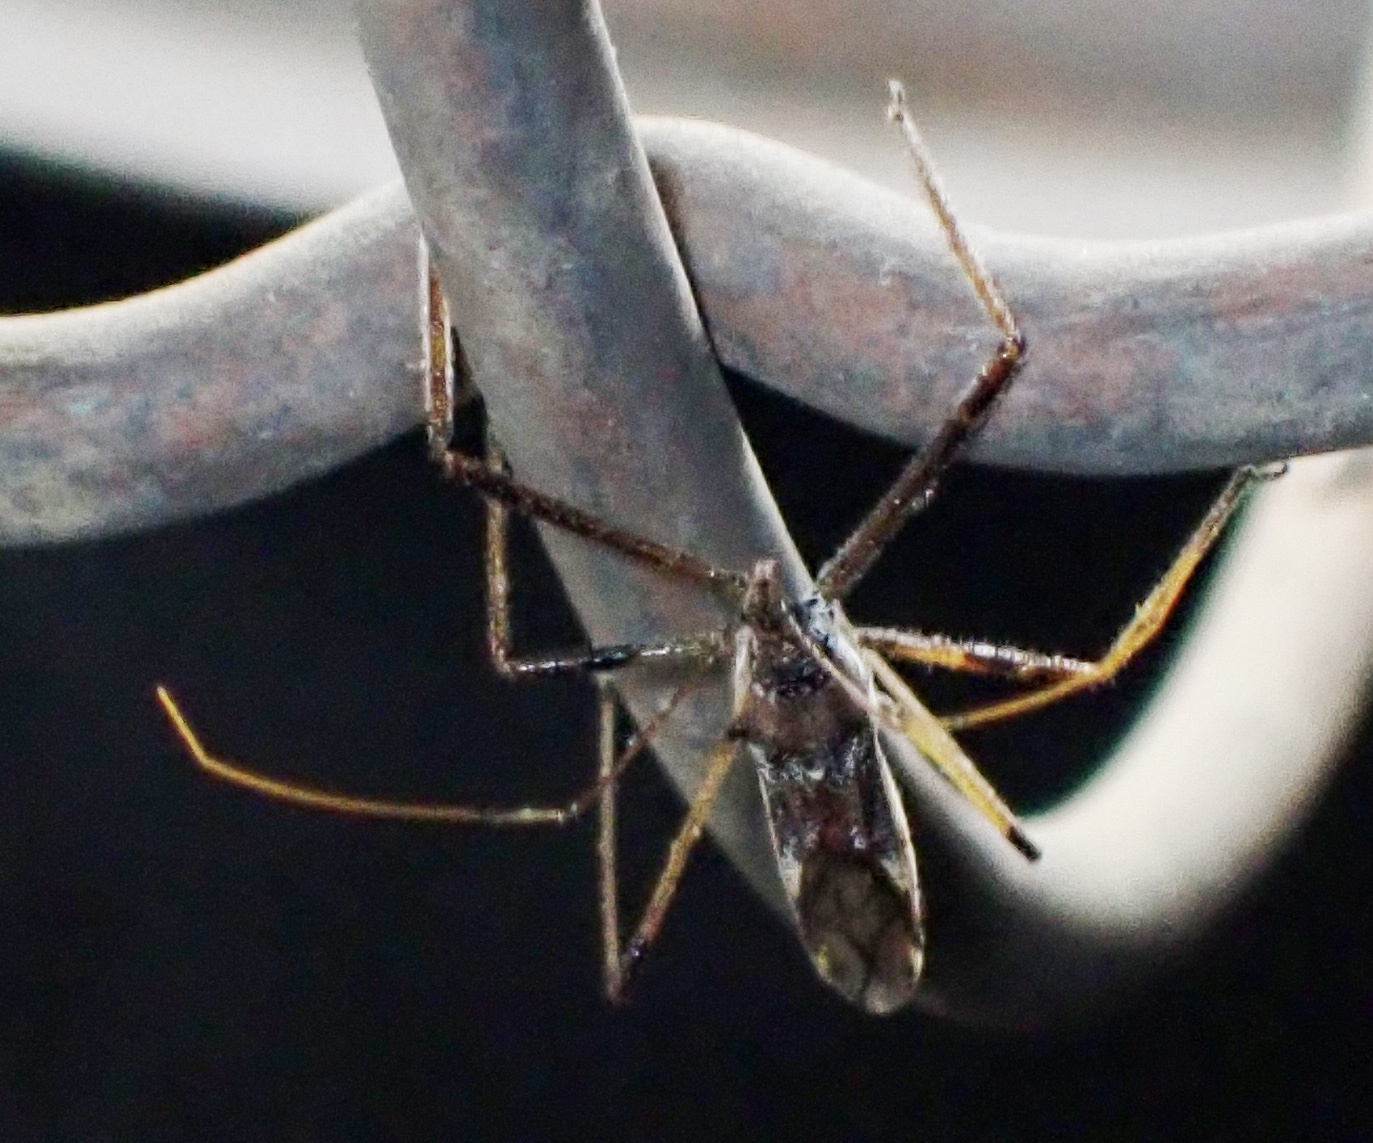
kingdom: Animalia
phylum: Arthropoda
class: Insecta
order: Hemiptera
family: Reduviidae
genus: Zelus
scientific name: Zelus tetracanthus
